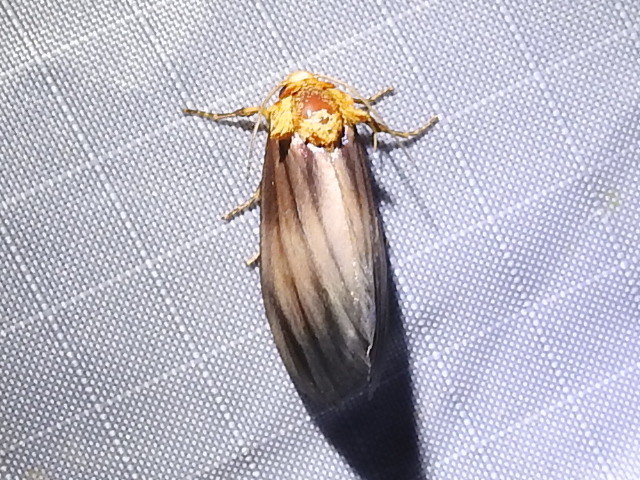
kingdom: Animalia
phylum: Arthropoda
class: Insecta
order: Lepidoptera
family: Noctuidae
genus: Antaplaga
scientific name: Antaplaga plesioglauca
